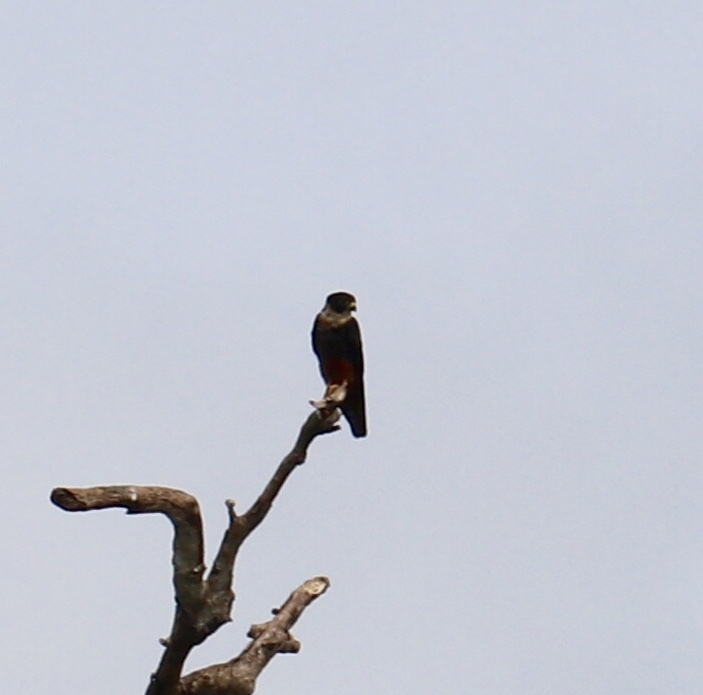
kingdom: Animalia
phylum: Chordata
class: Aves
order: Falconiformes
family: Falconidae
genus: Falco
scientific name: Falco rufigularis
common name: Bat falcon
